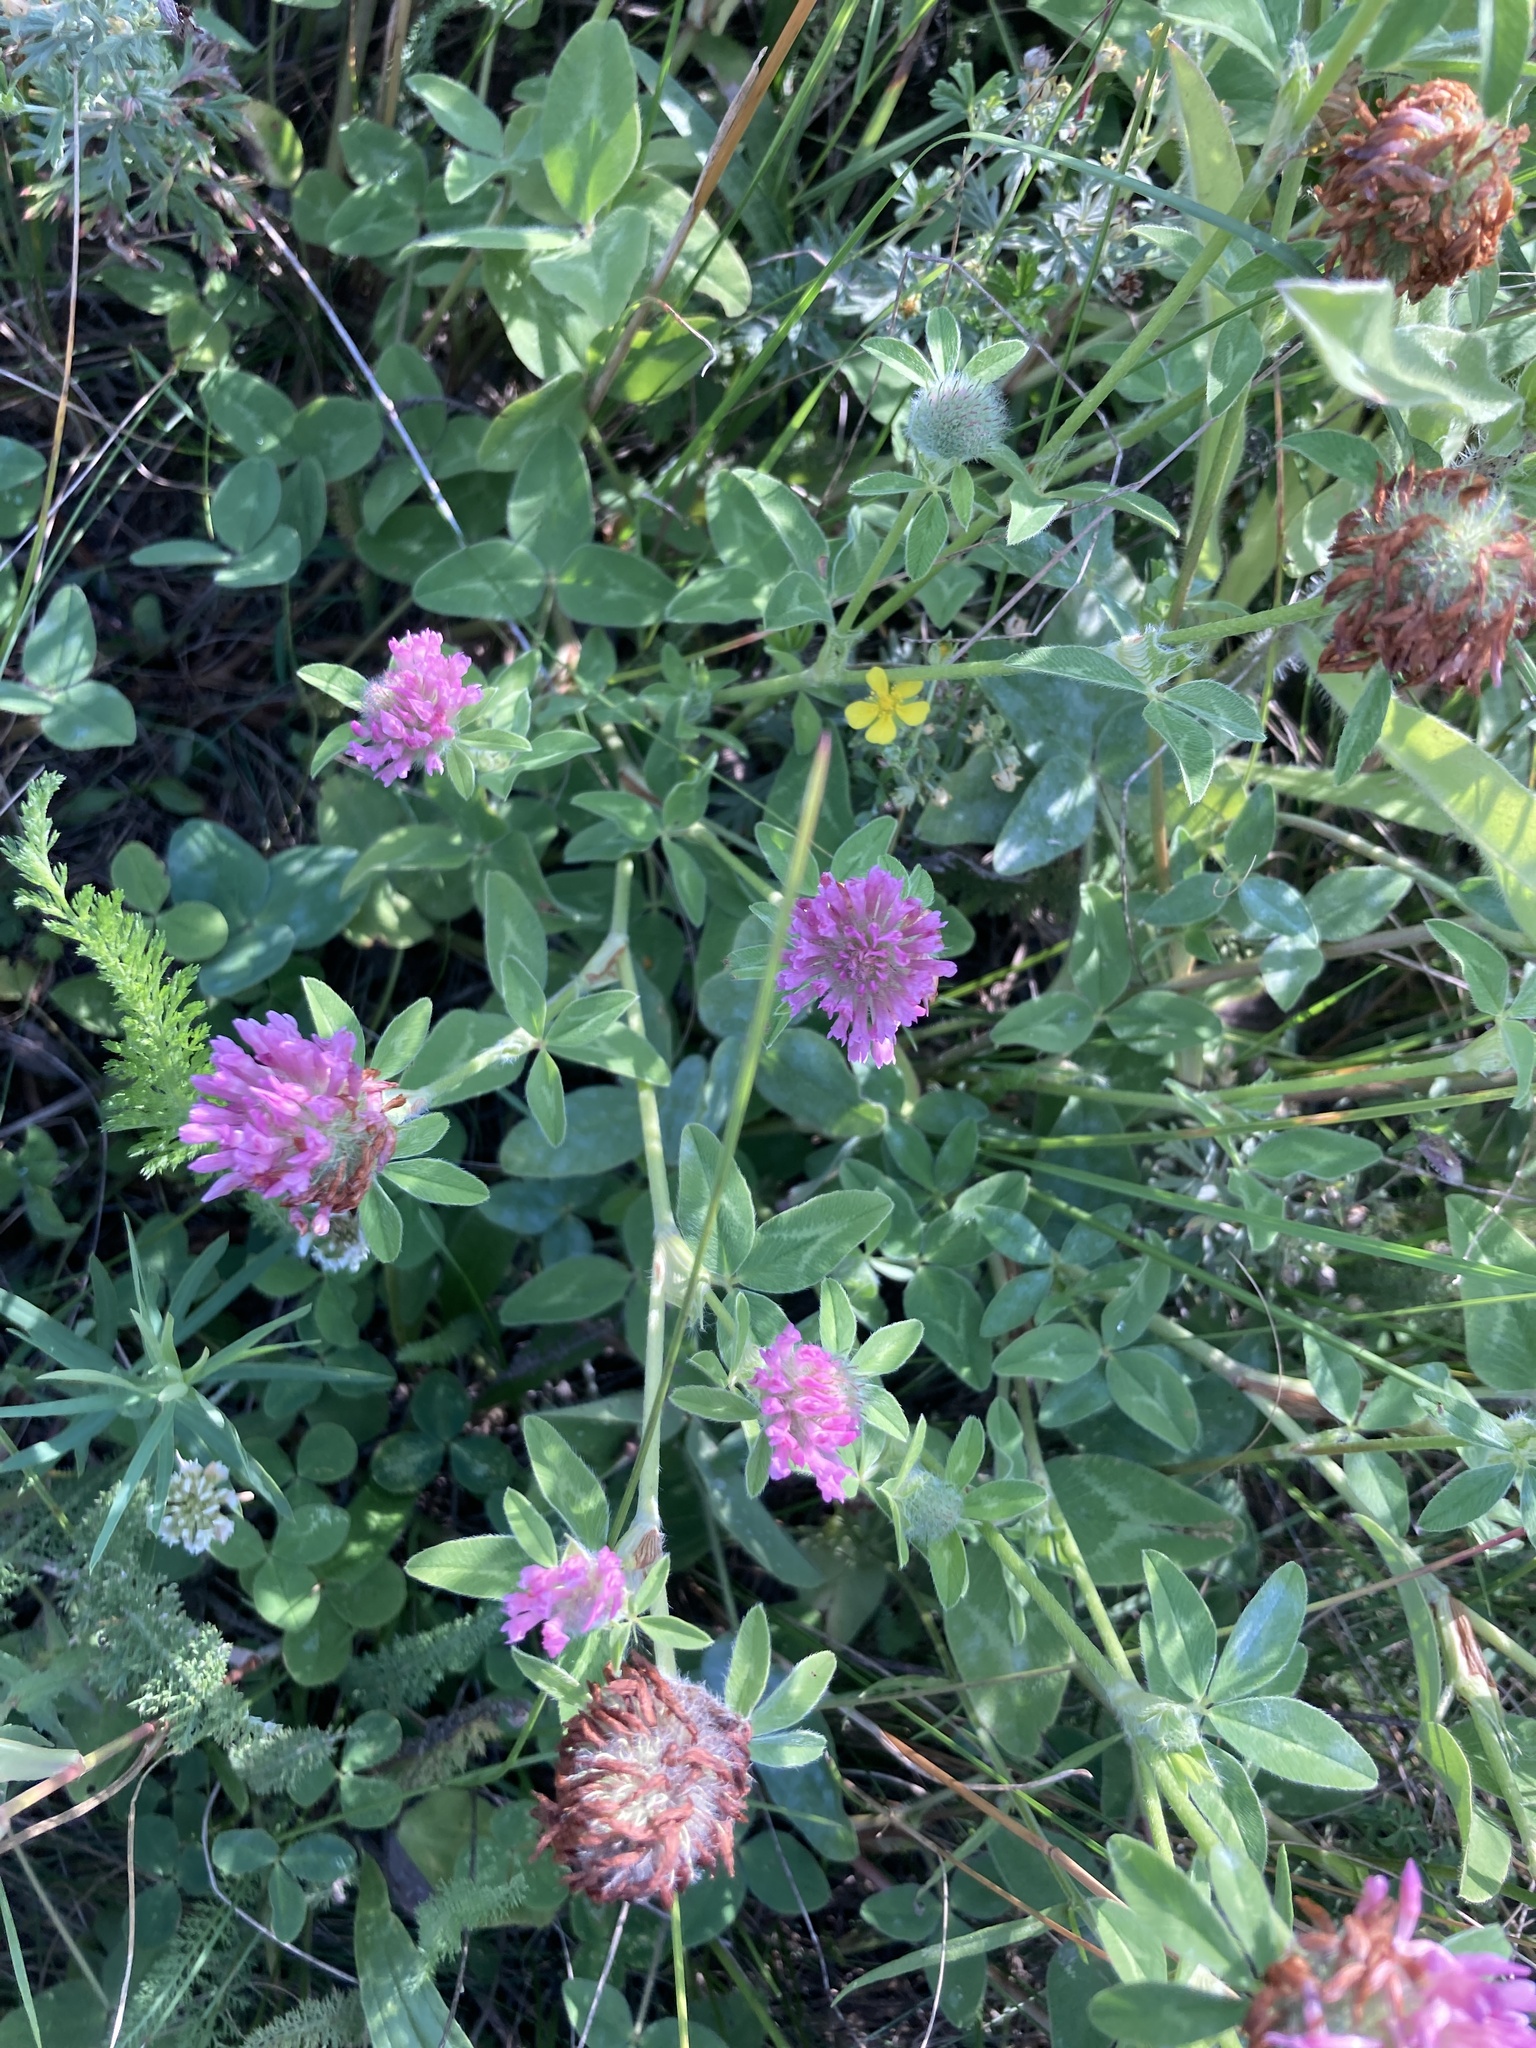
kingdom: Plantae
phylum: Tracheophyta
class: Magnoliopsida
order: Fabales
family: Fabaceae
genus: Trifolium
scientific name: Trifolium pratense
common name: Red clover
